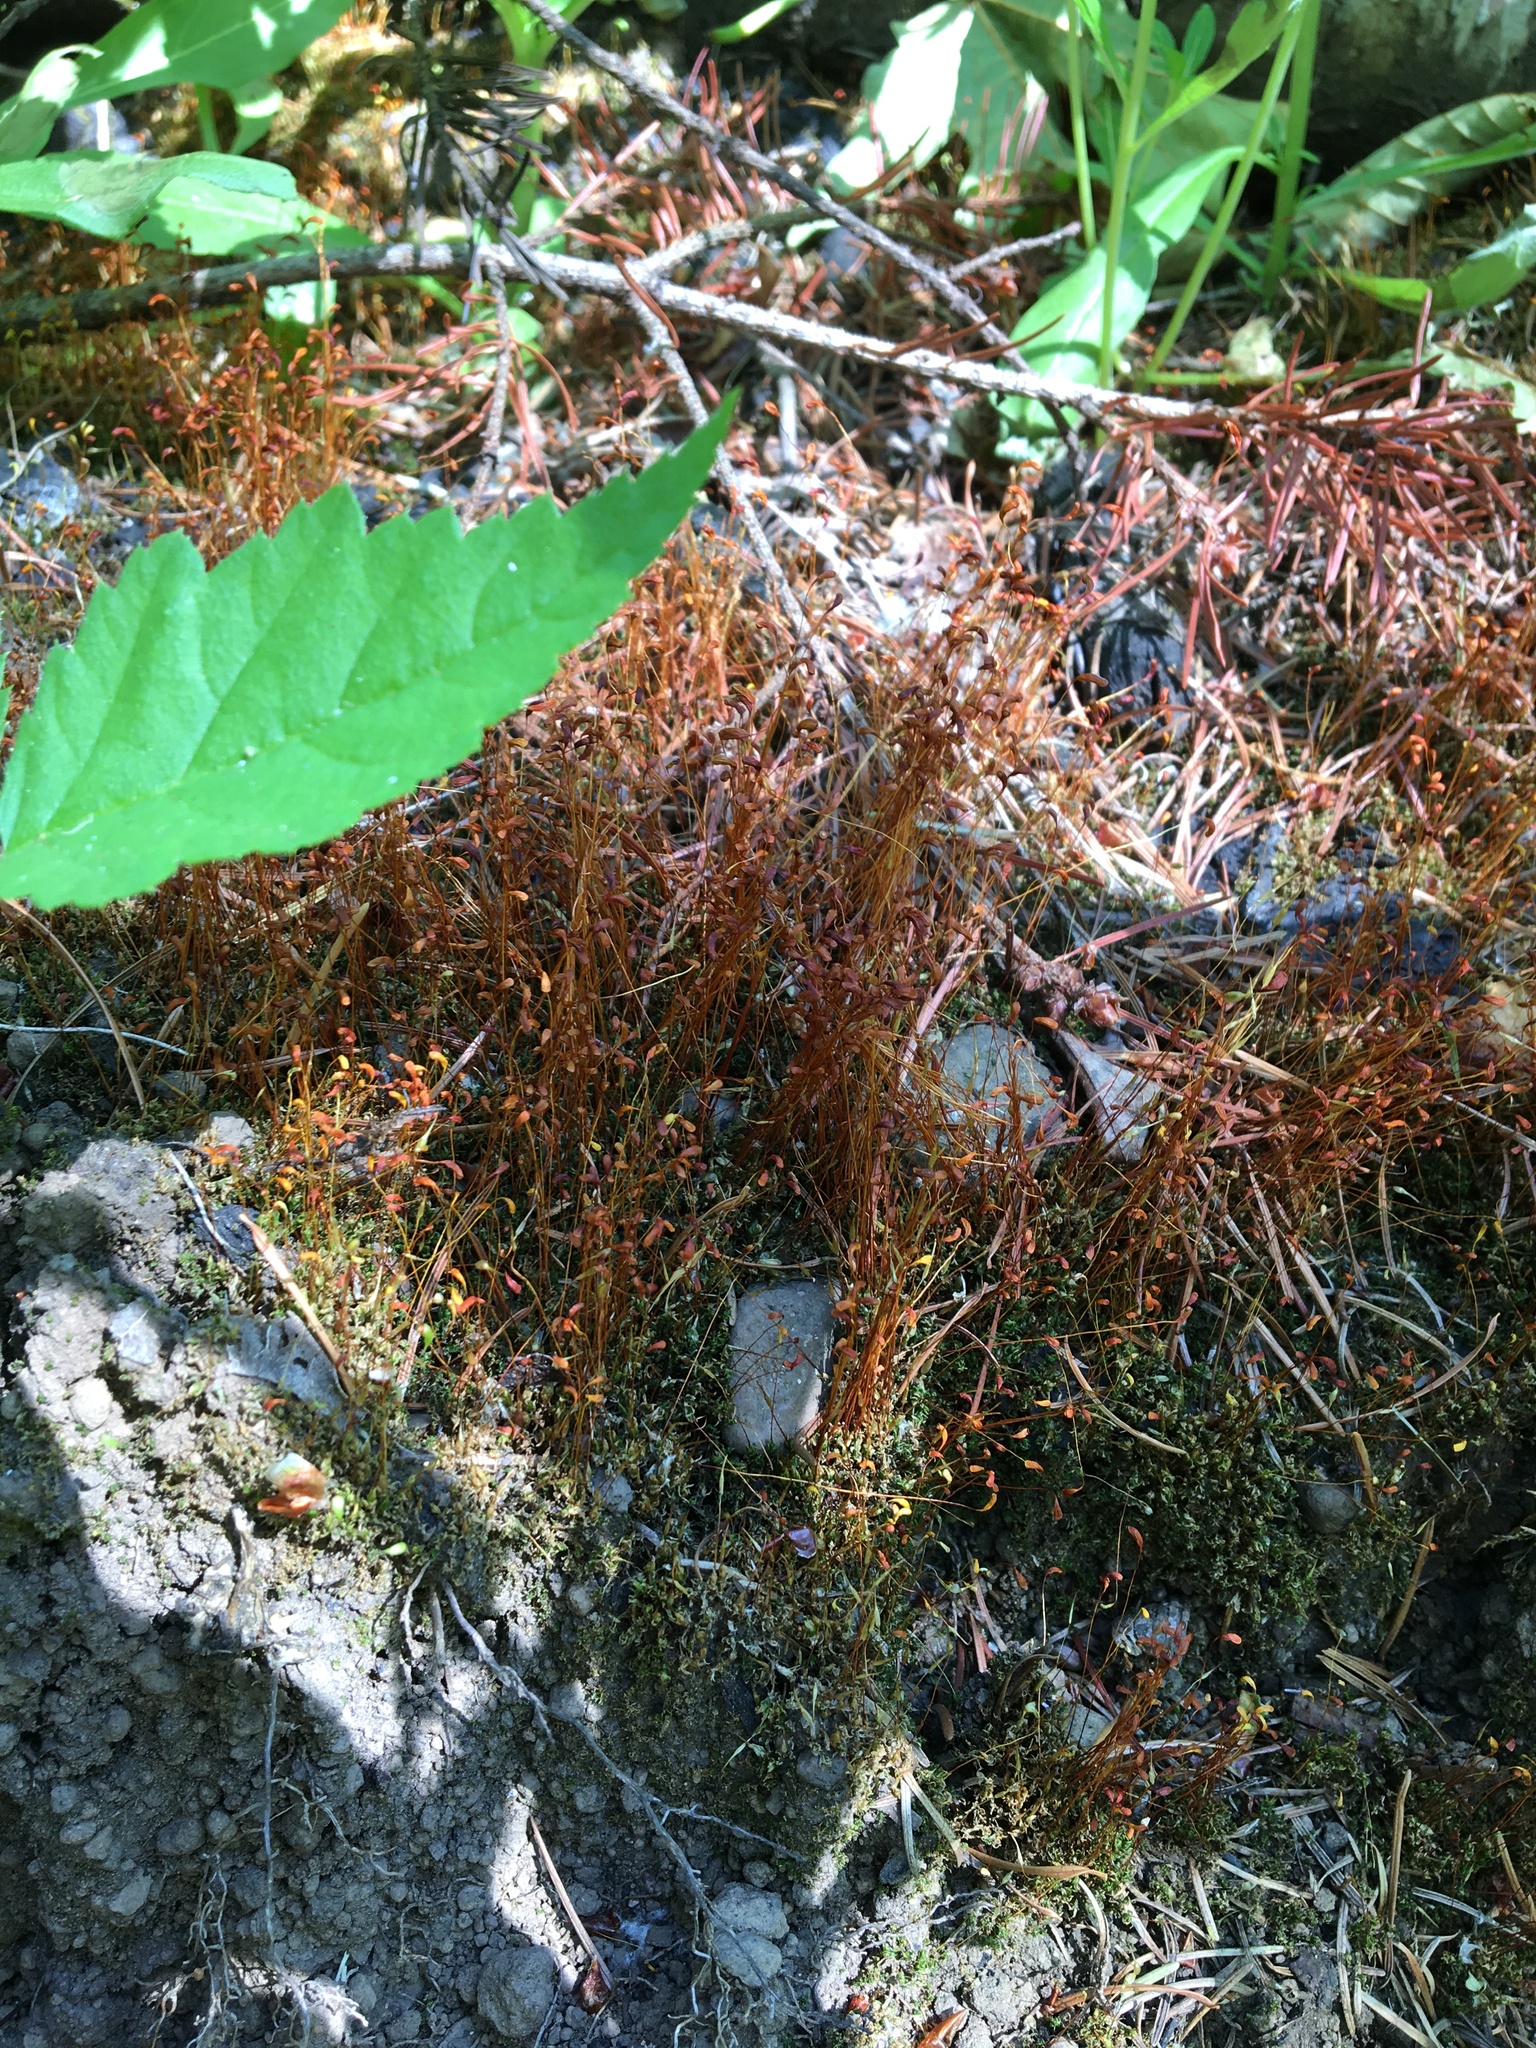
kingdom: Plantae
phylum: Bryophyta
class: Bryopsida
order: Funariales
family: Funariaceae
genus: Funaria
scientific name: Funaria hygrometrica
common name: Common cord moss
